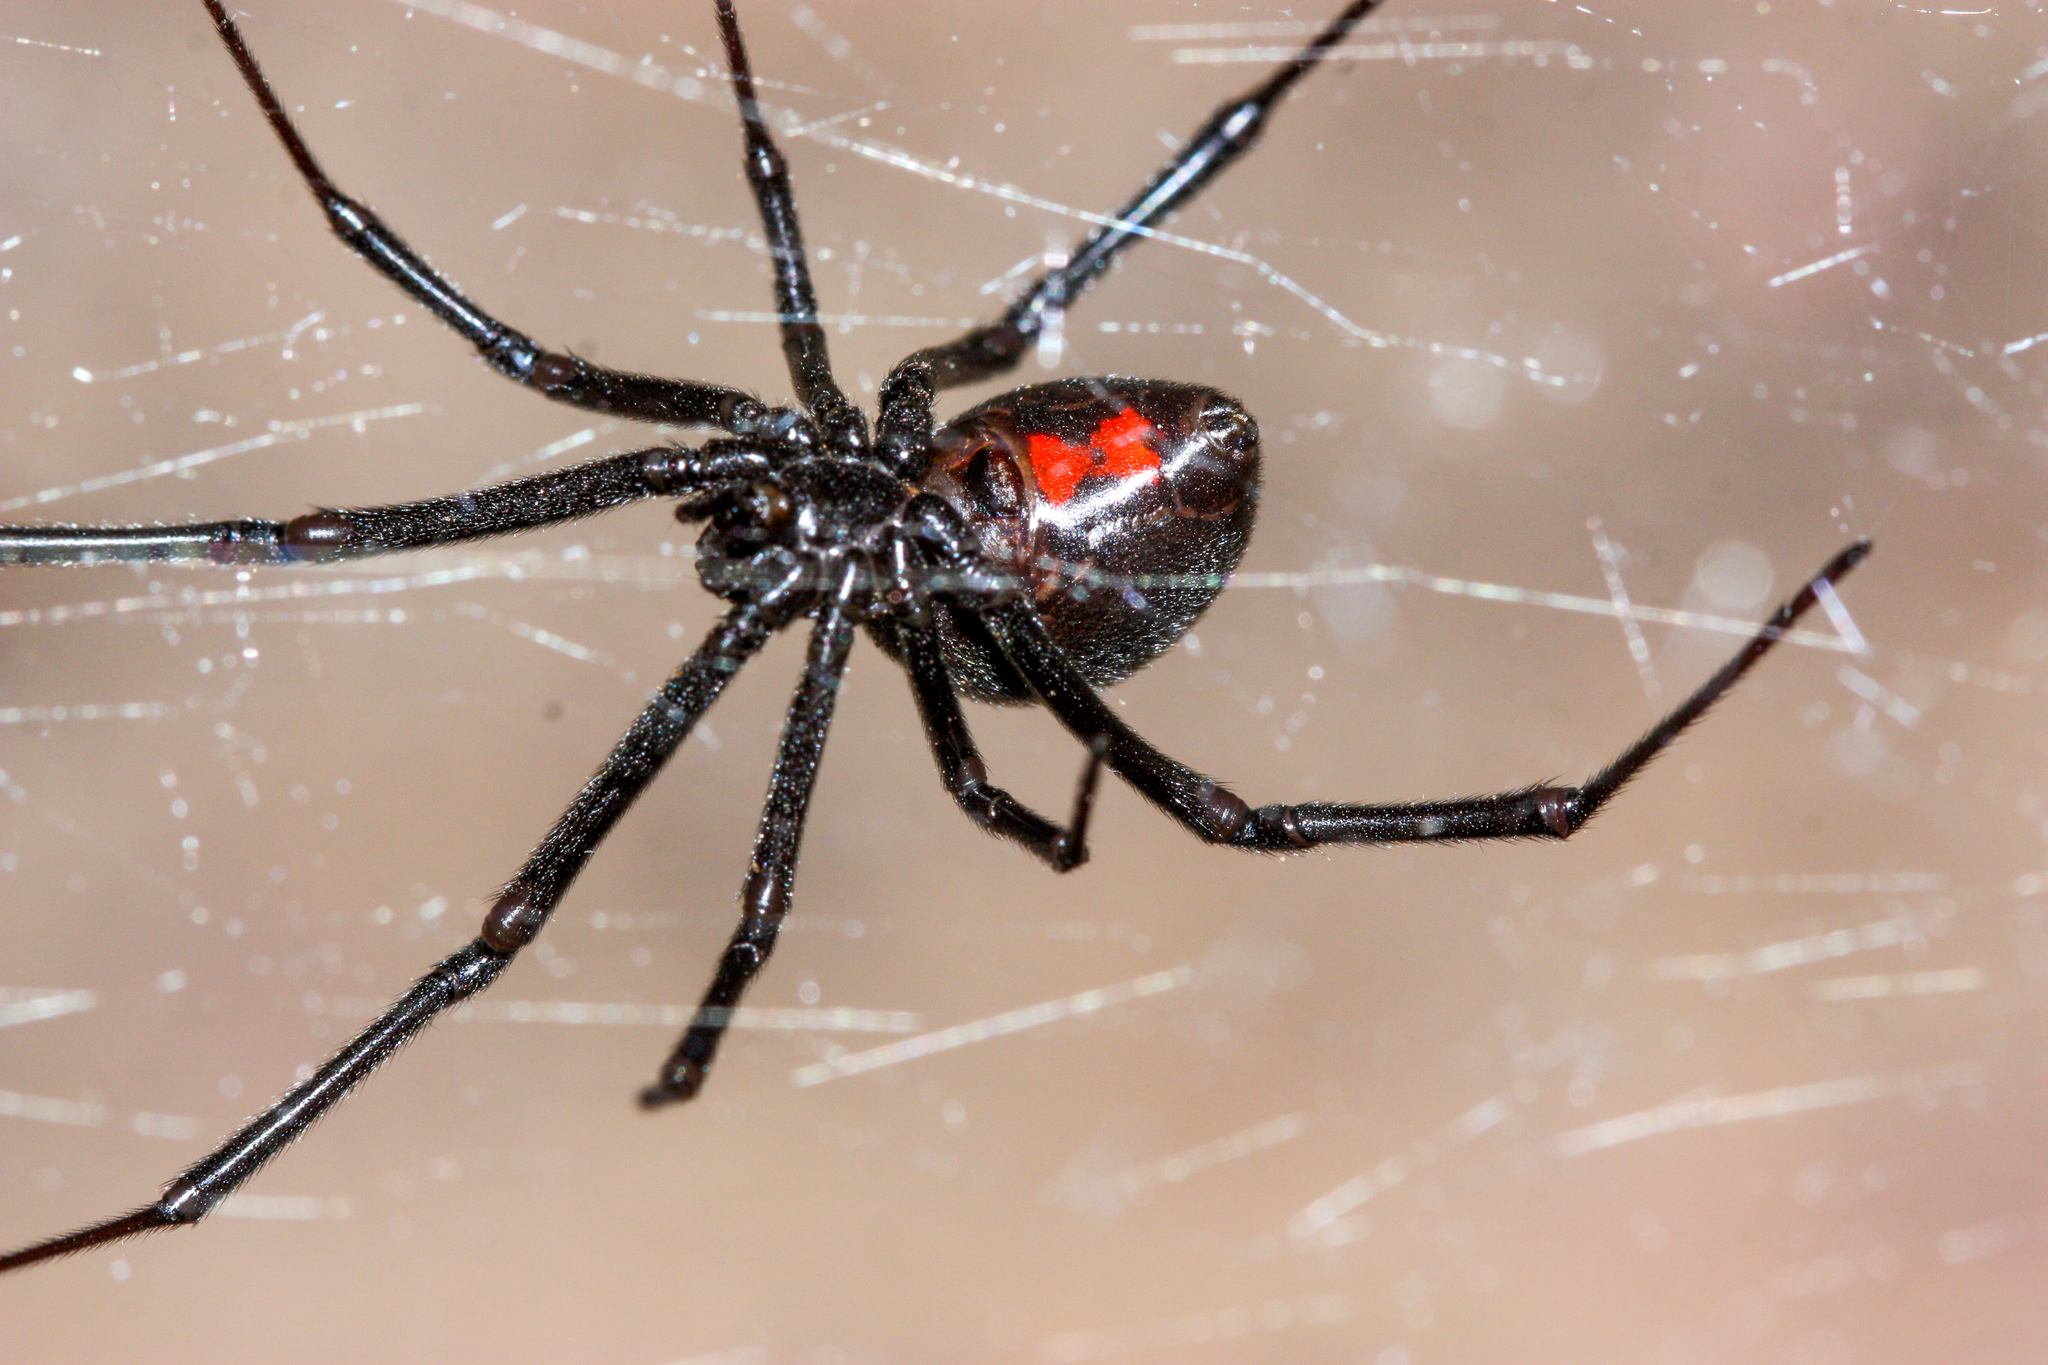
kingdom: Animalia
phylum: Arthropoda
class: Arachnida
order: Araneae
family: Theridiidae
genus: Latrodectus
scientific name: Latrodectus hesperus
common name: Western black widow
